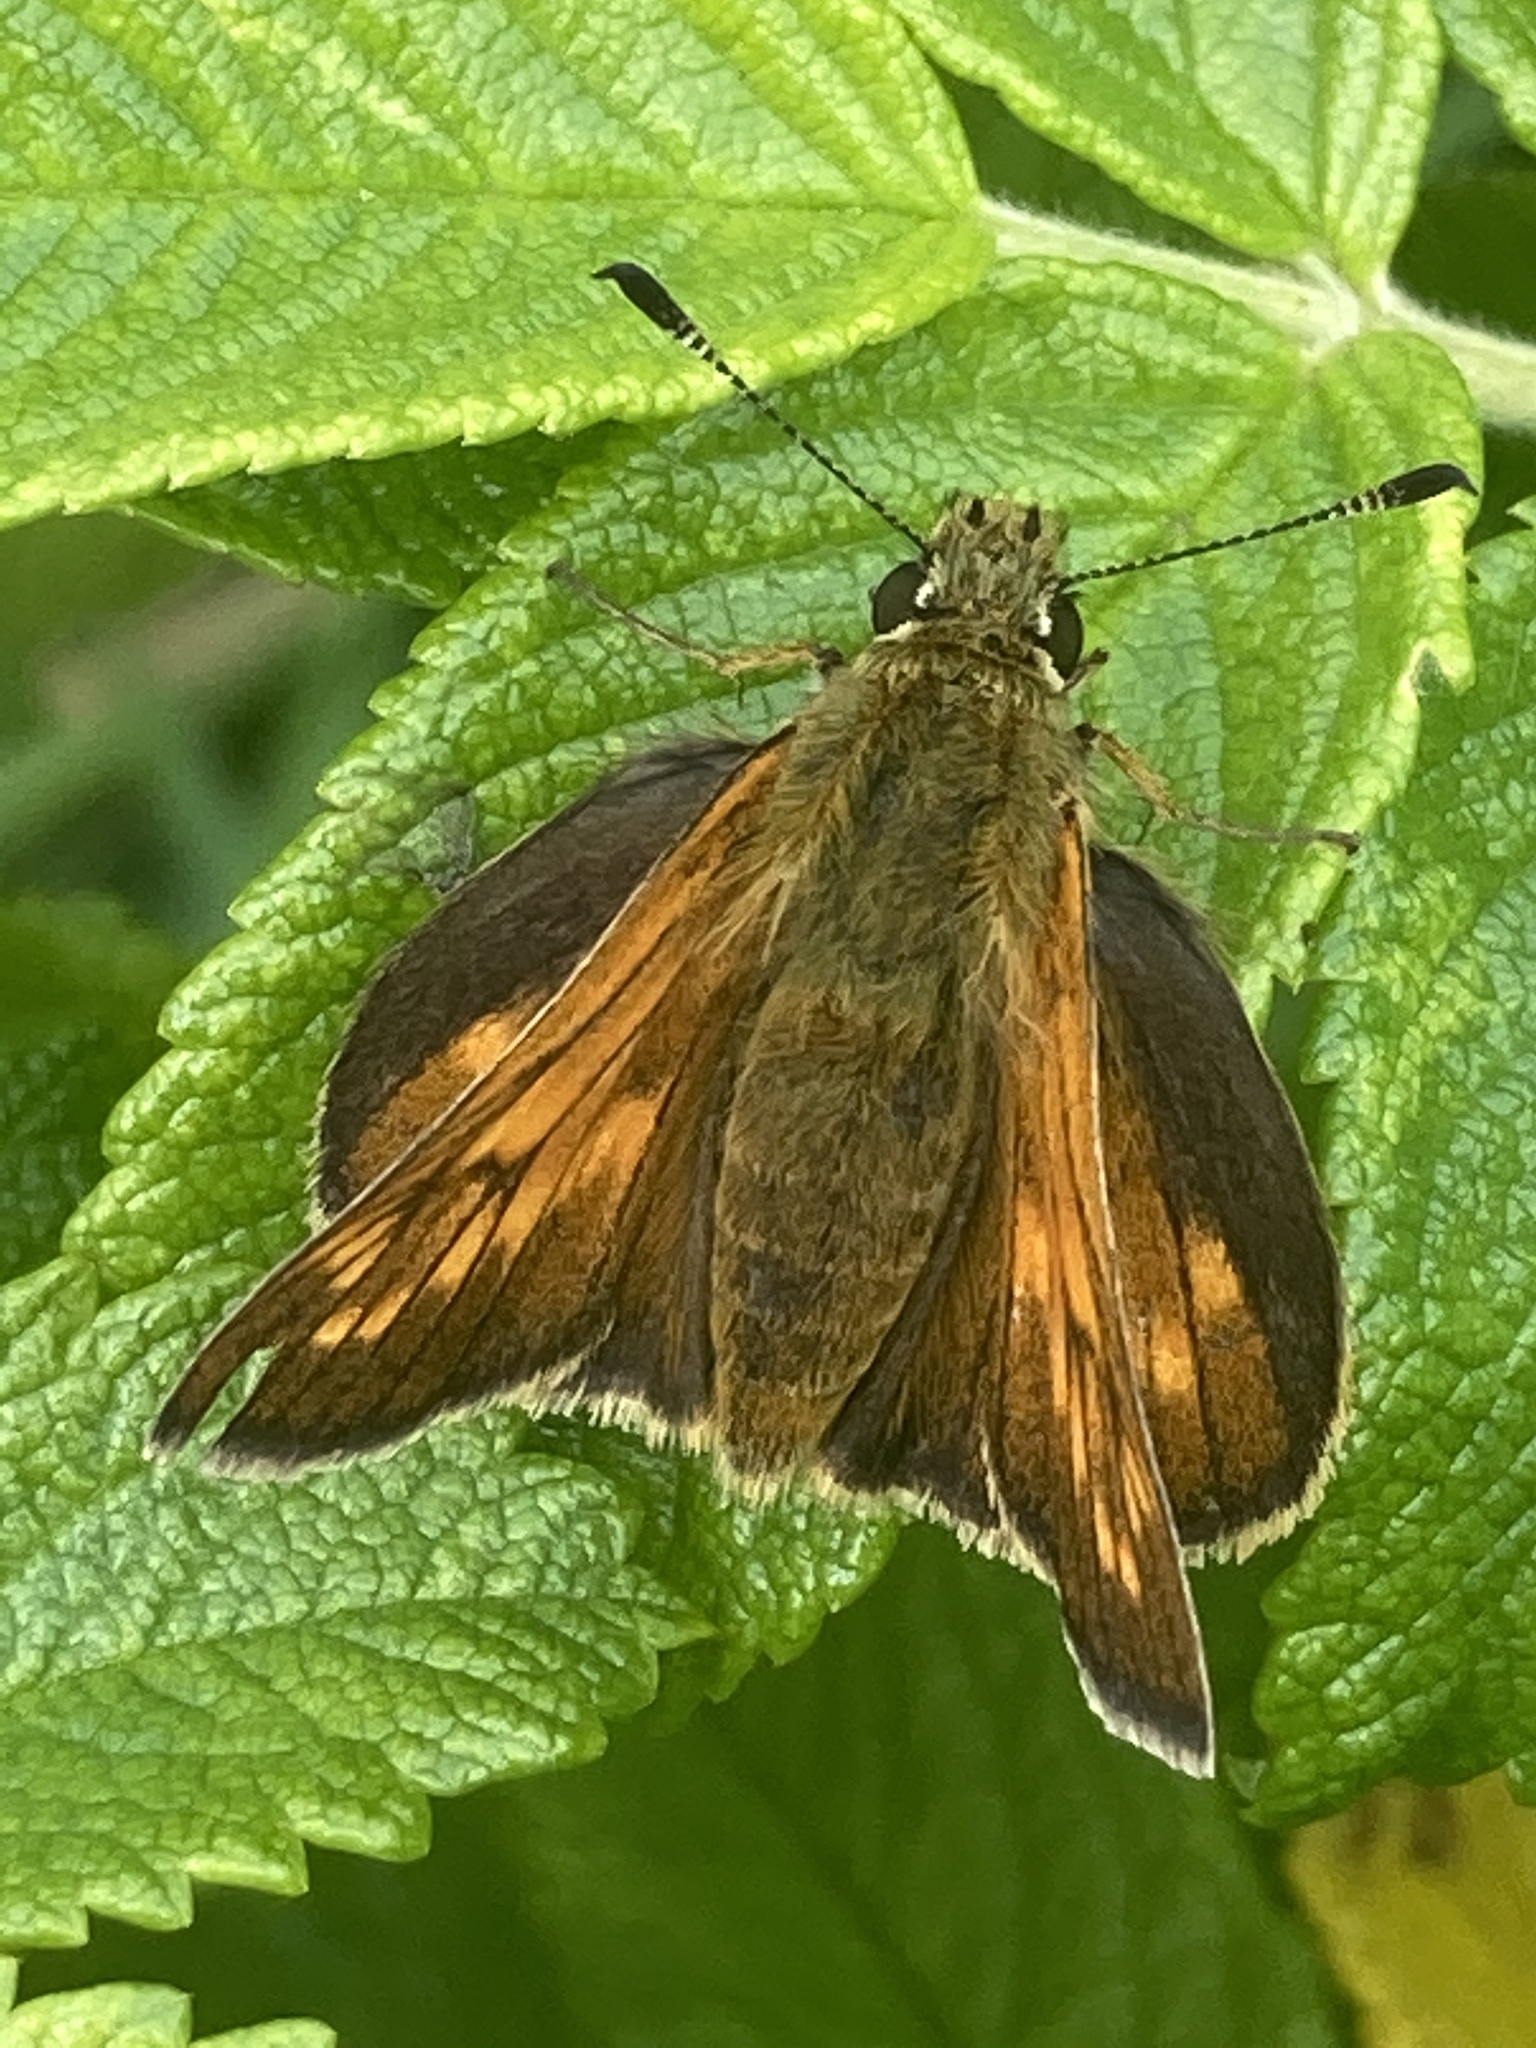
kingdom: Animalia
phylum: Arthropoda
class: Insecta
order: Lepidoptera
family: Hesperiidae
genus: Ochlodes
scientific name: Ochlodes venata
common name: Large skipper
